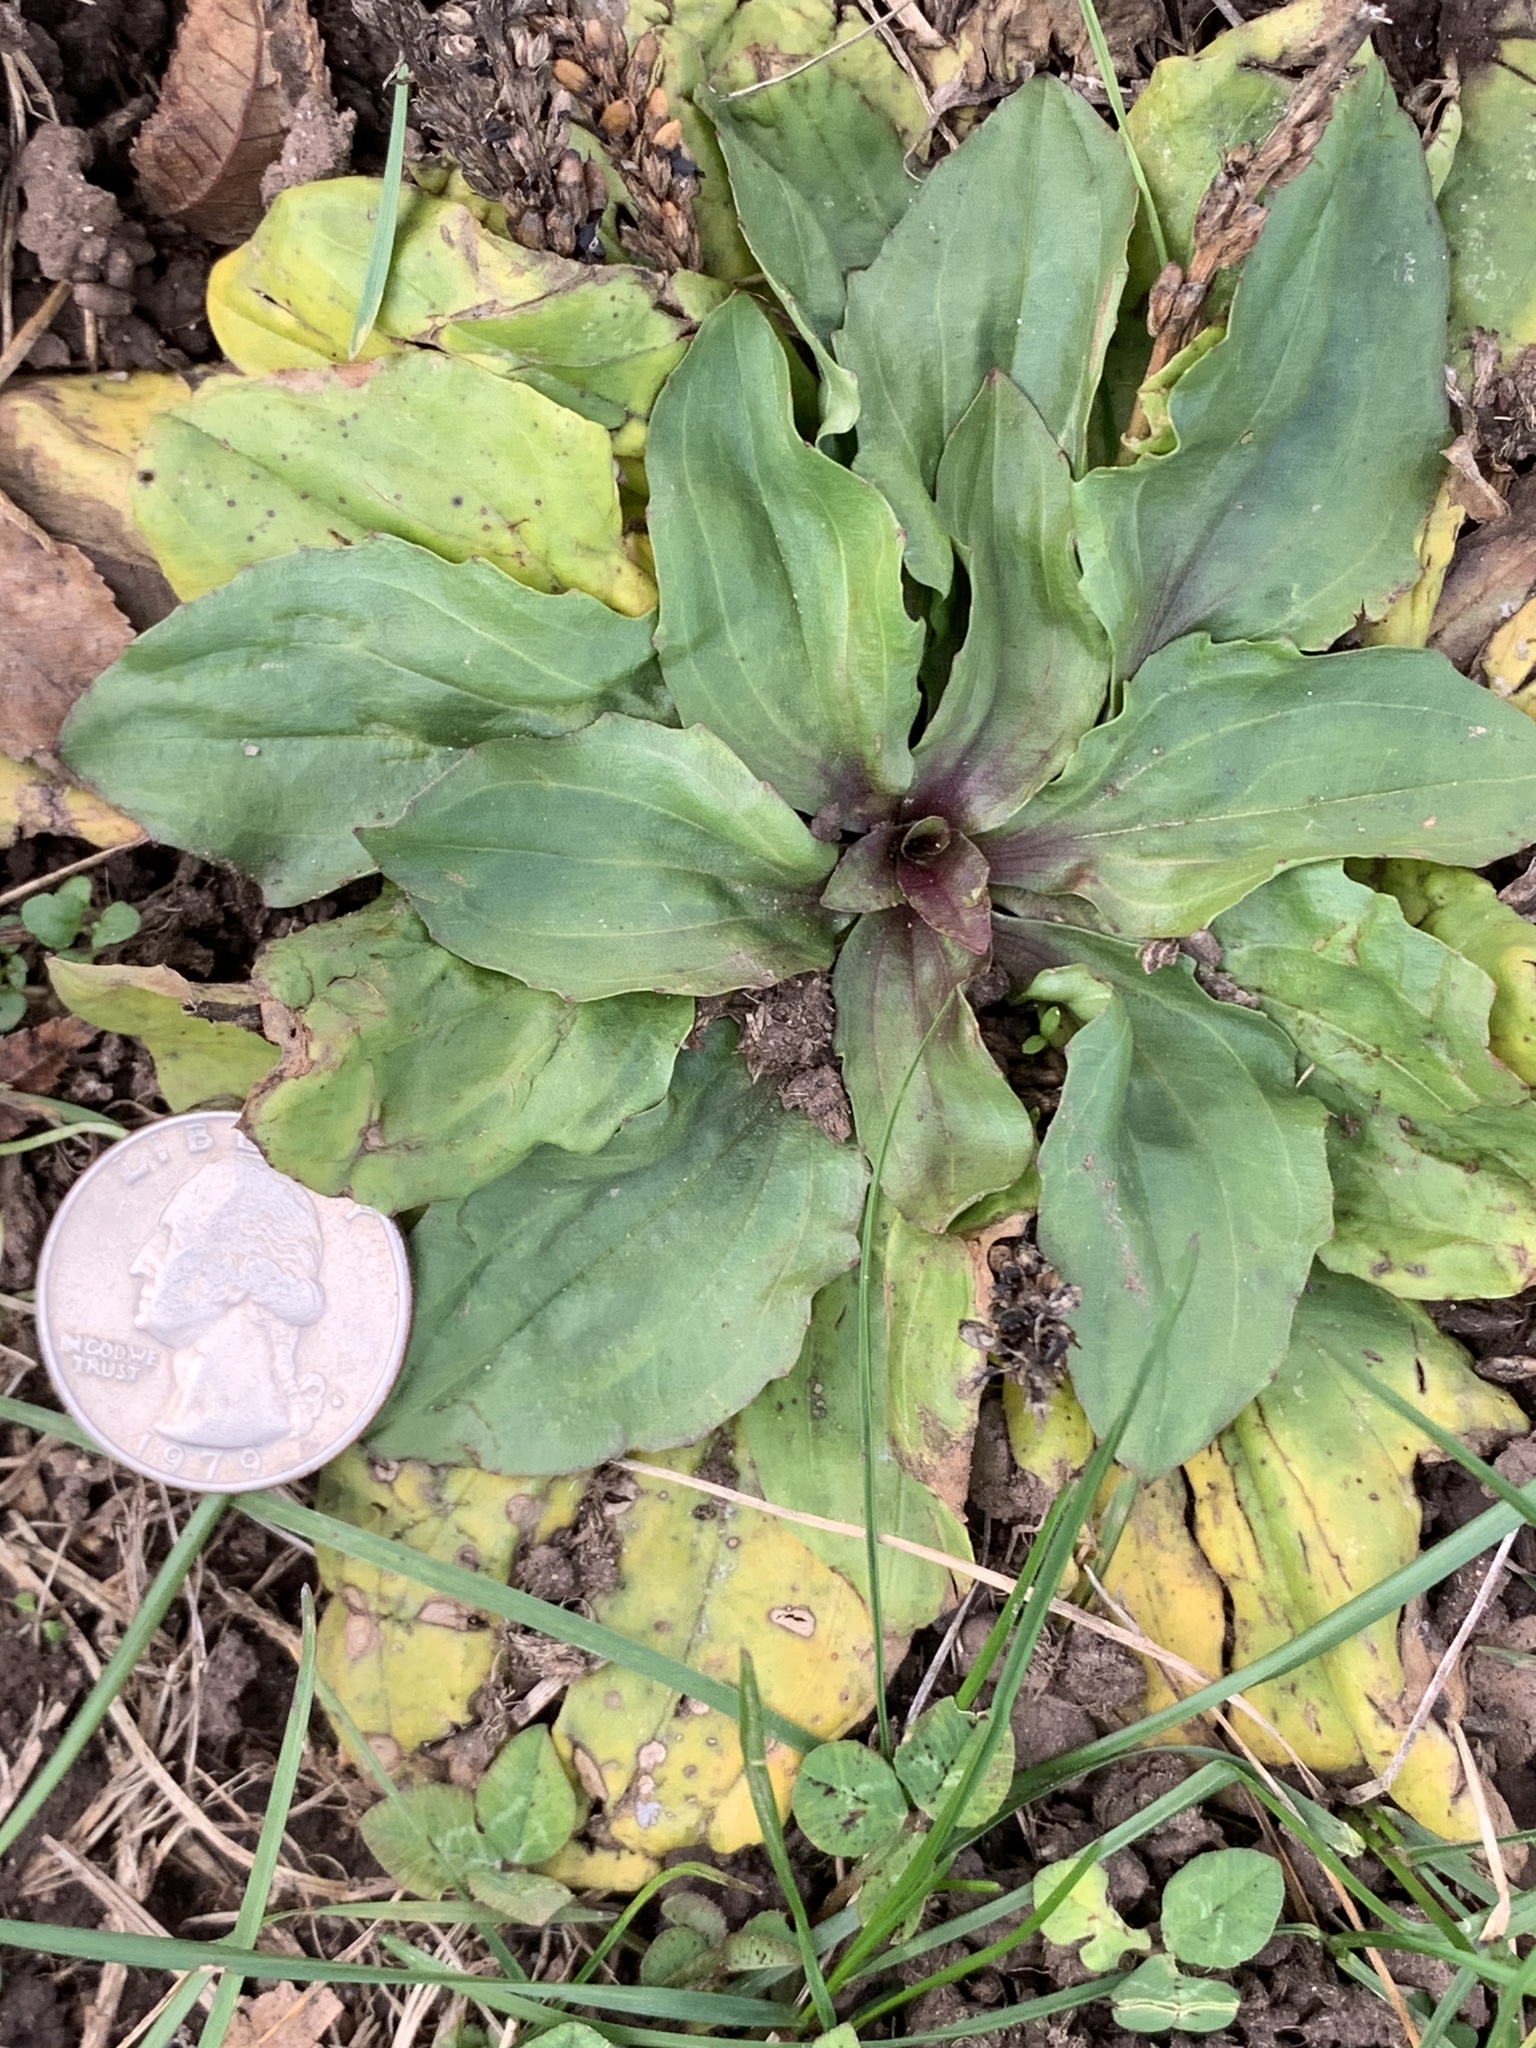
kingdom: Plantae
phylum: Tracheophyta
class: Magnoliopsida
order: Lamiales
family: Plantaginaceae
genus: Plantago
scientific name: Plantago rugelii
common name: American plantain
